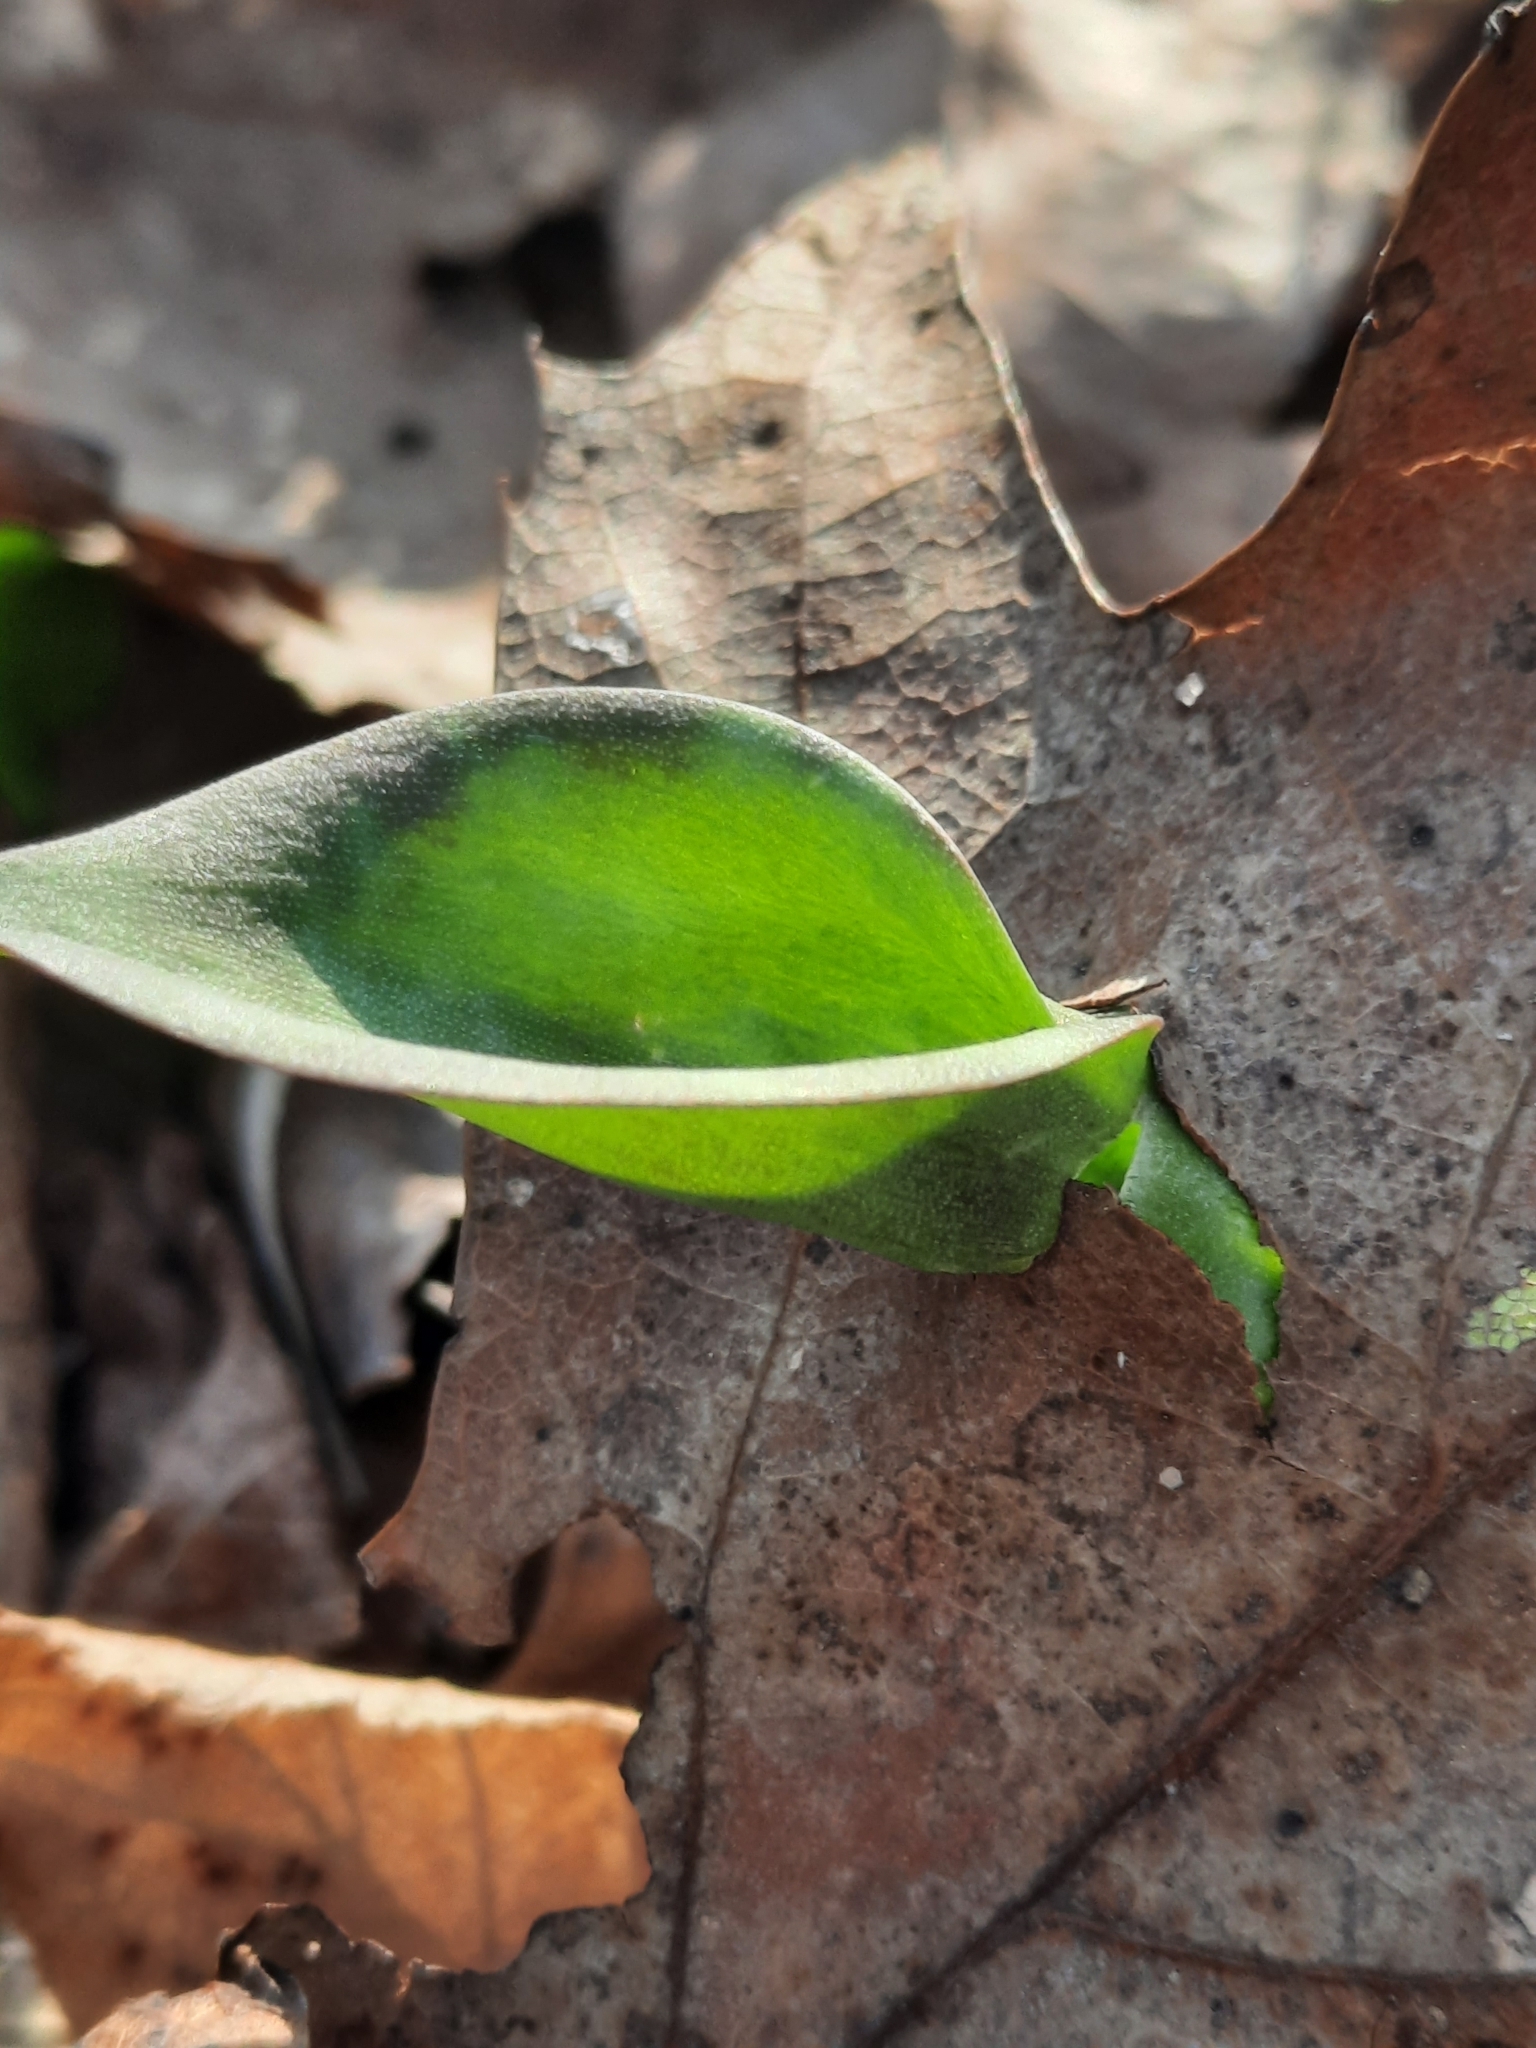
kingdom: Plantae
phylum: Tracheophyta
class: Liliopsida
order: Liliales
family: Liliaceae
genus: Erythronium
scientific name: Erythronium americanum
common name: Yellow adder's-tongue
